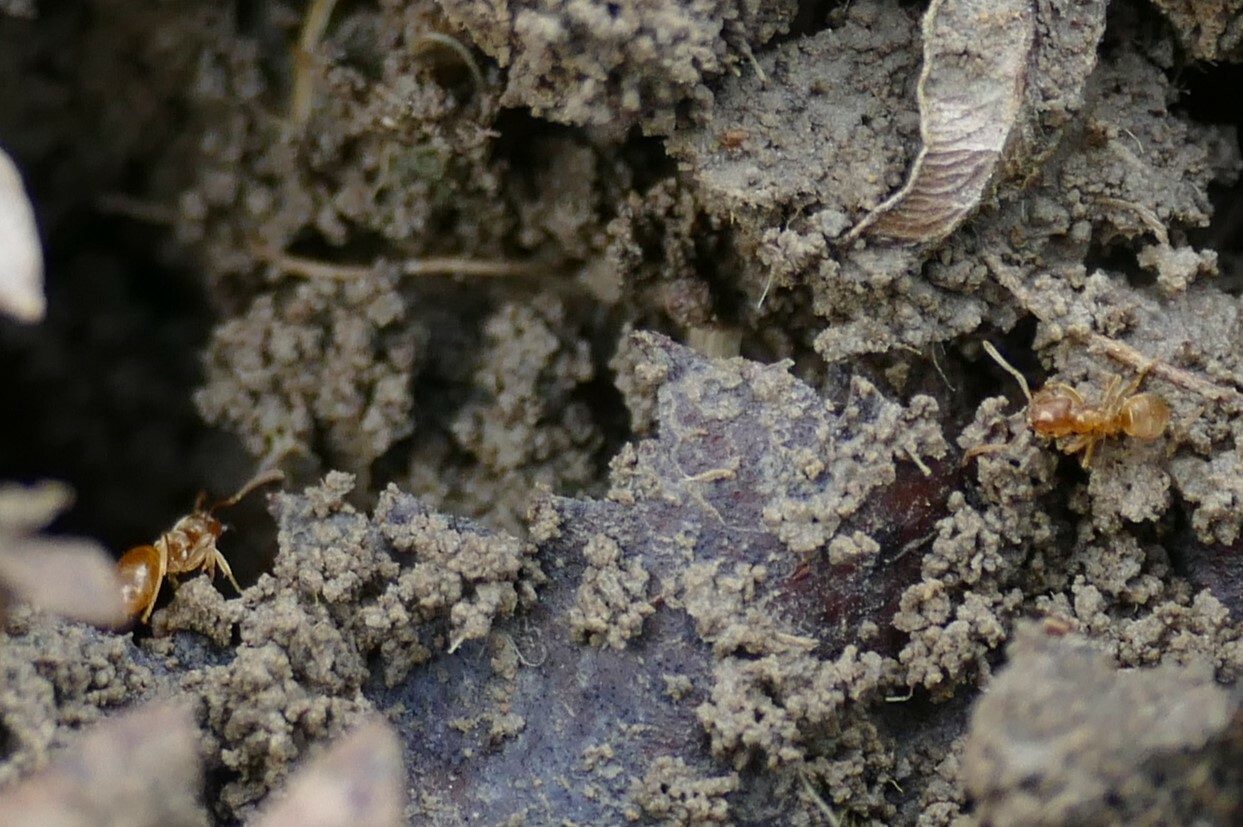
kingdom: Animalia
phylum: Arthropoda
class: Insecta
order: Hymenoptera
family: Formicidae
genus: Lasius
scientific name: Lasius flavus
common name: Blond field ant
